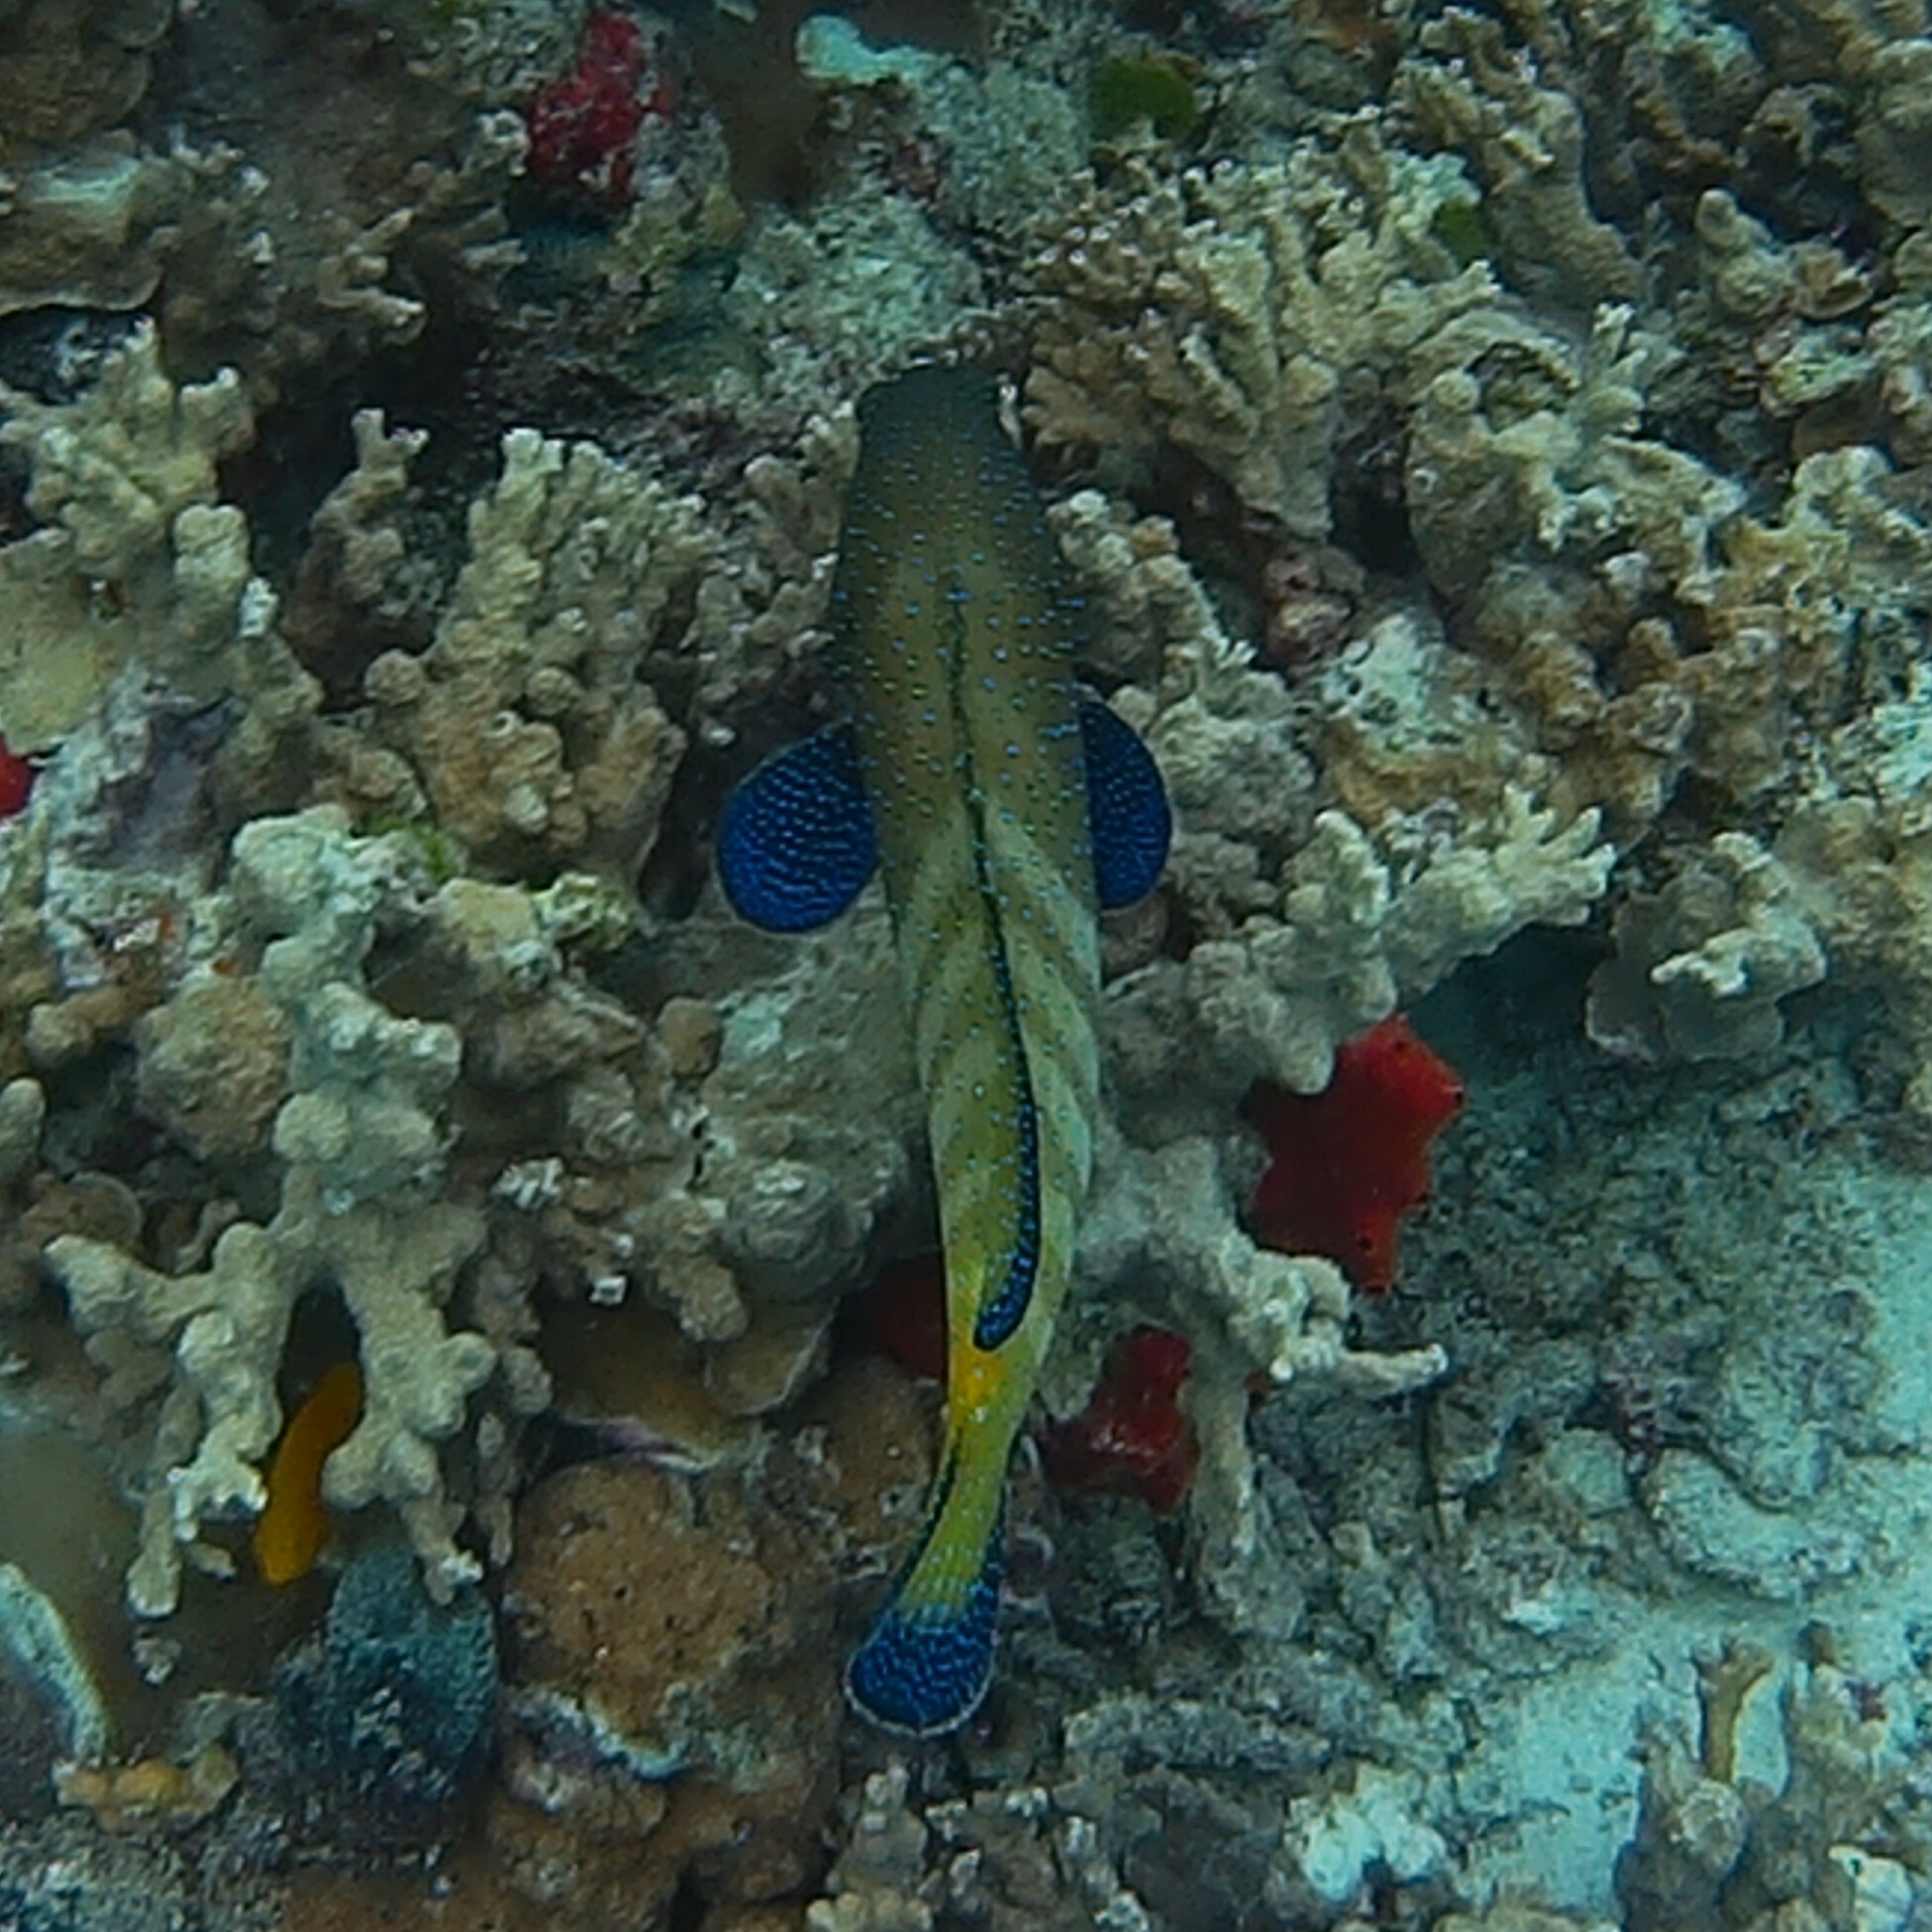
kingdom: Animalia
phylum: Chordata
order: Perciformes
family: Serranidae
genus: Cephalopholis
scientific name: Cephalopholis argus
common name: Peacock grouper
